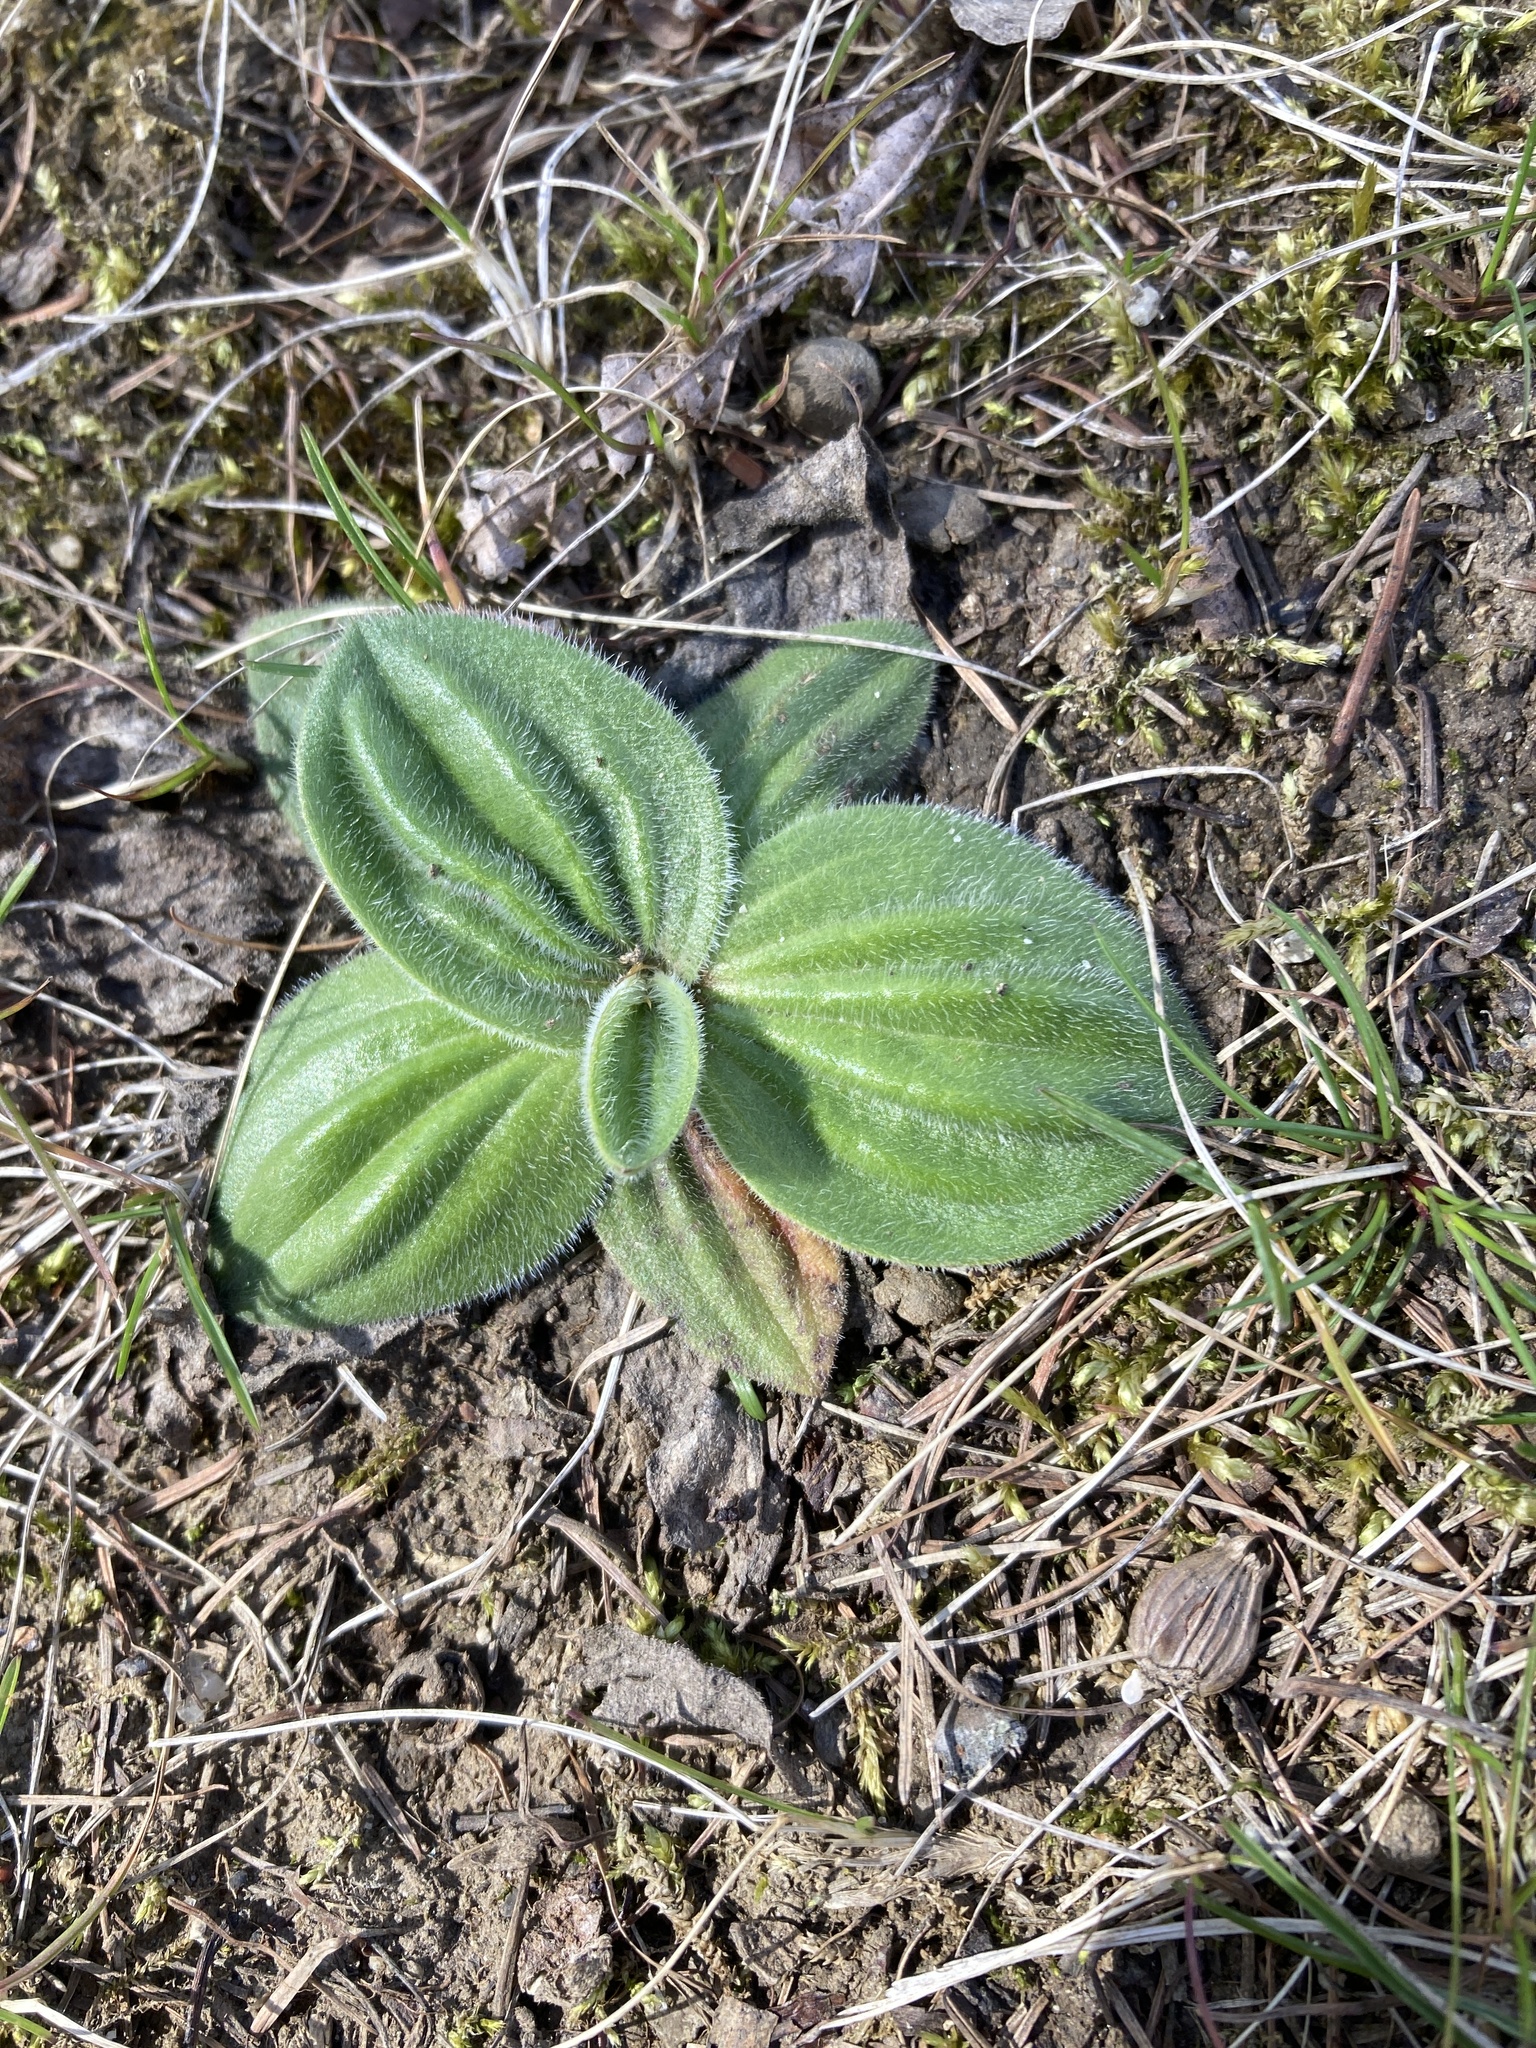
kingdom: Plantae
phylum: Tracheophyta
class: Magnoliopsida
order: Lamiales
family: Plantaginaceae
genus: Plantago
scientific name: Plantago media
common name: Hoary plantain
